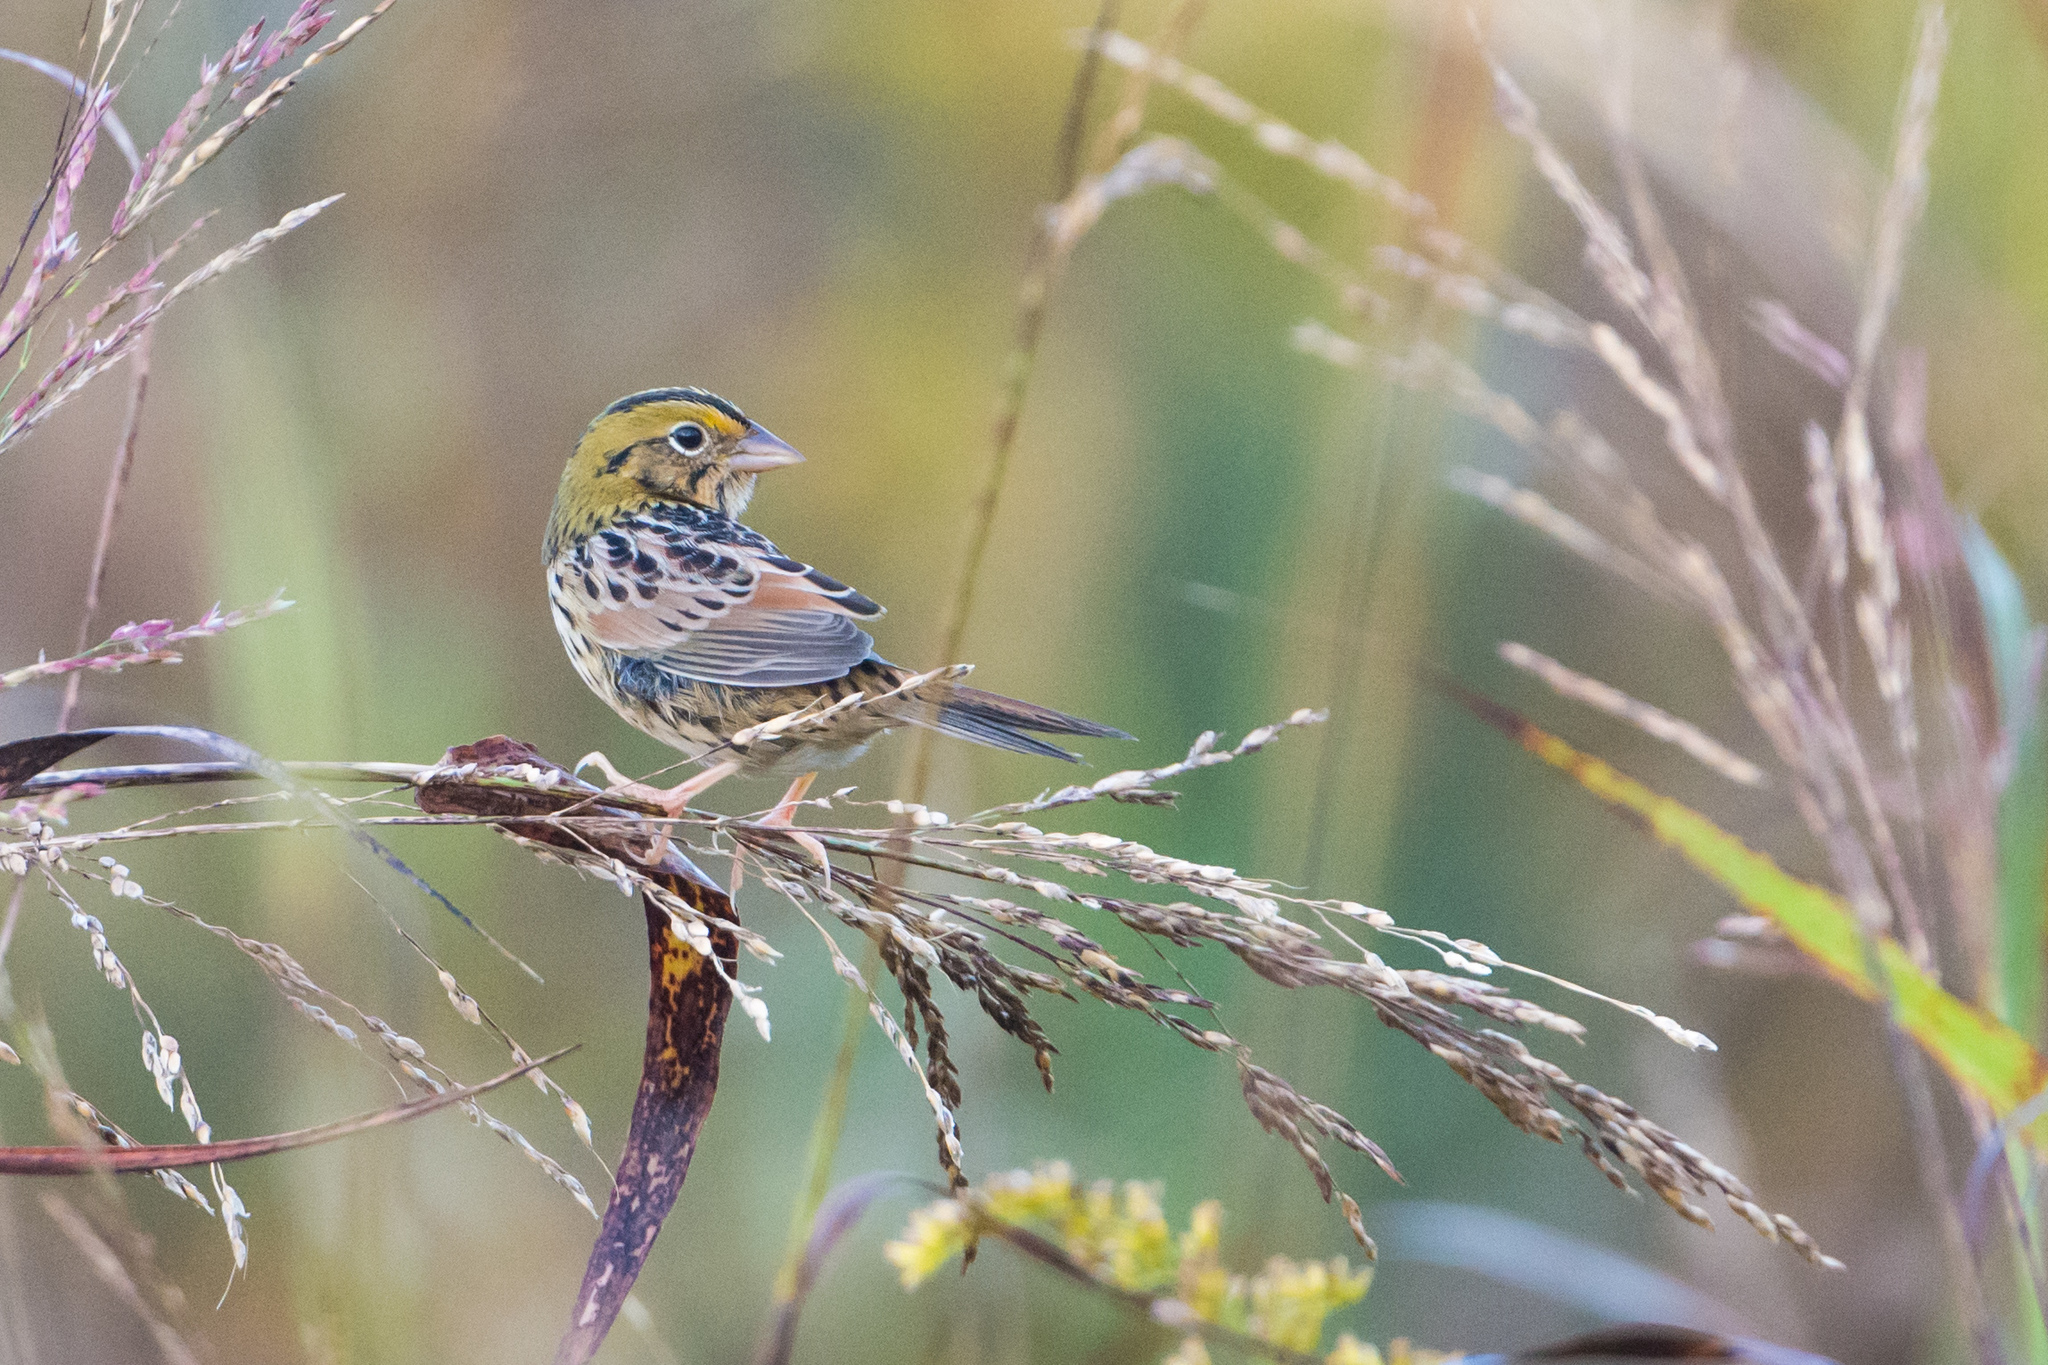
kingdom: Animalia
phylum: Chordata
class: Aves
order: Passeriformes
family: Passerellidae
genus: Centronyx
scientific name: Centronyx henslowii
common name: Henslow's sparrow
